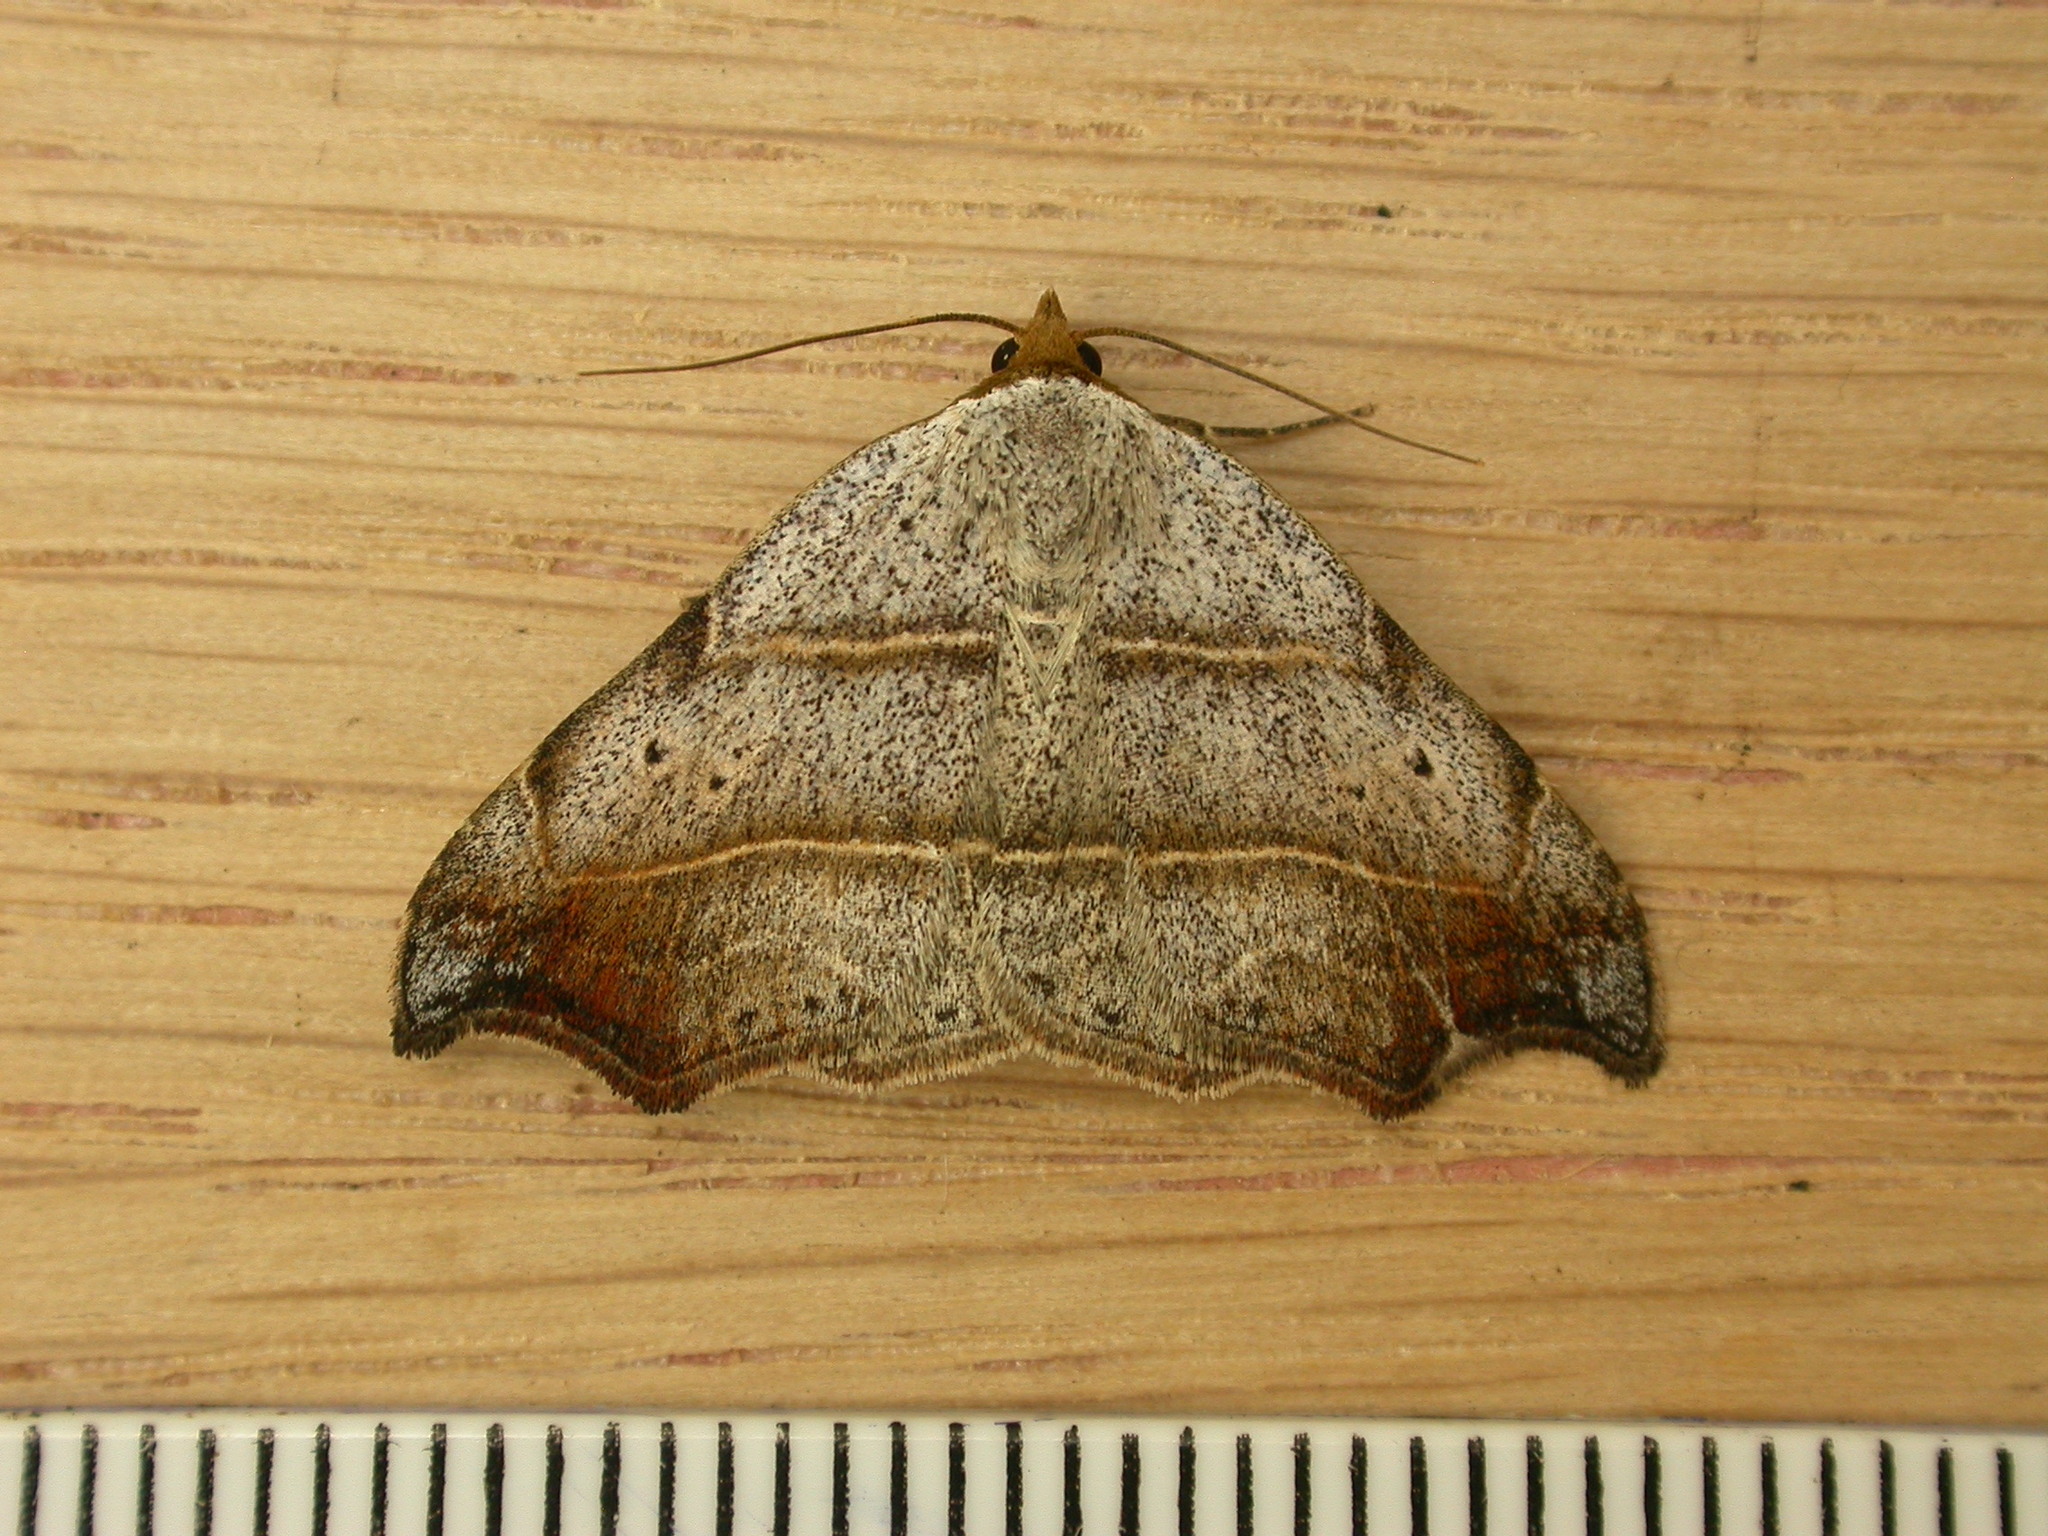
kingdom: Animalia
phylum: Arthropoda
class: Insecta
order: Lepidoptera
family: Erebidae
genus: Laspeyria
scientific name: Laspeyria flexula
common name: Beautiful hook-tip
